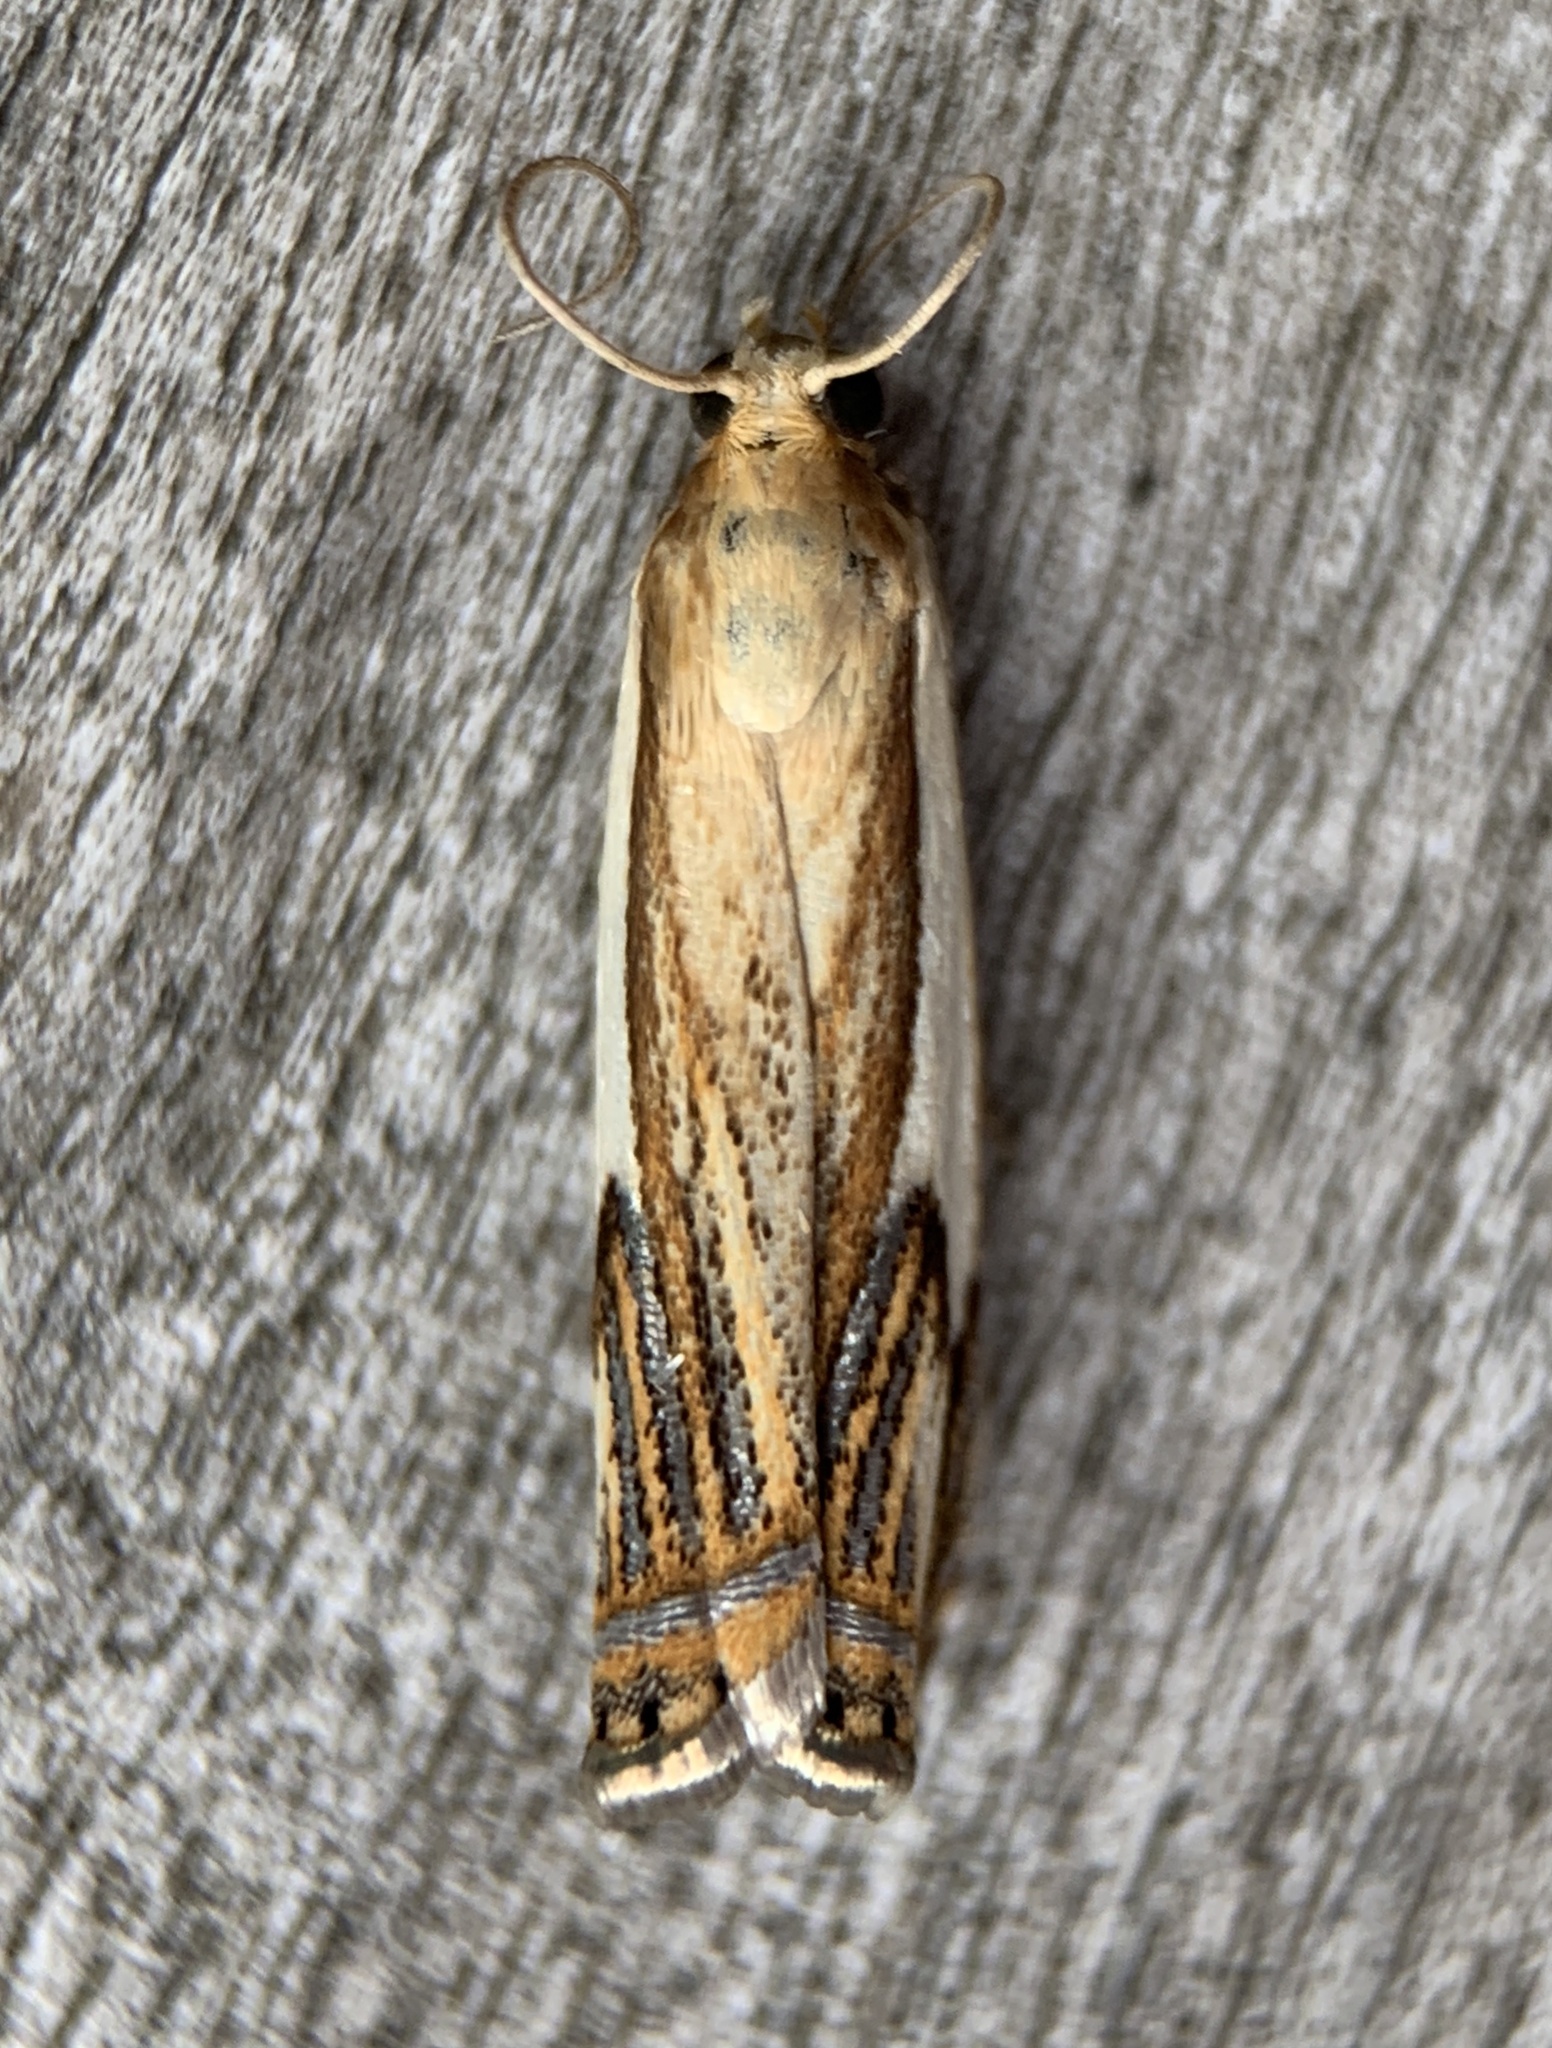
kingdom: Animalia
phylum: Arthropoda
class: Insecta
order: Lepidoptera
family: Crambidae
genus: Crambus
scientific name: Crambus agitatellus
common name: Double-banded grass-veneer
